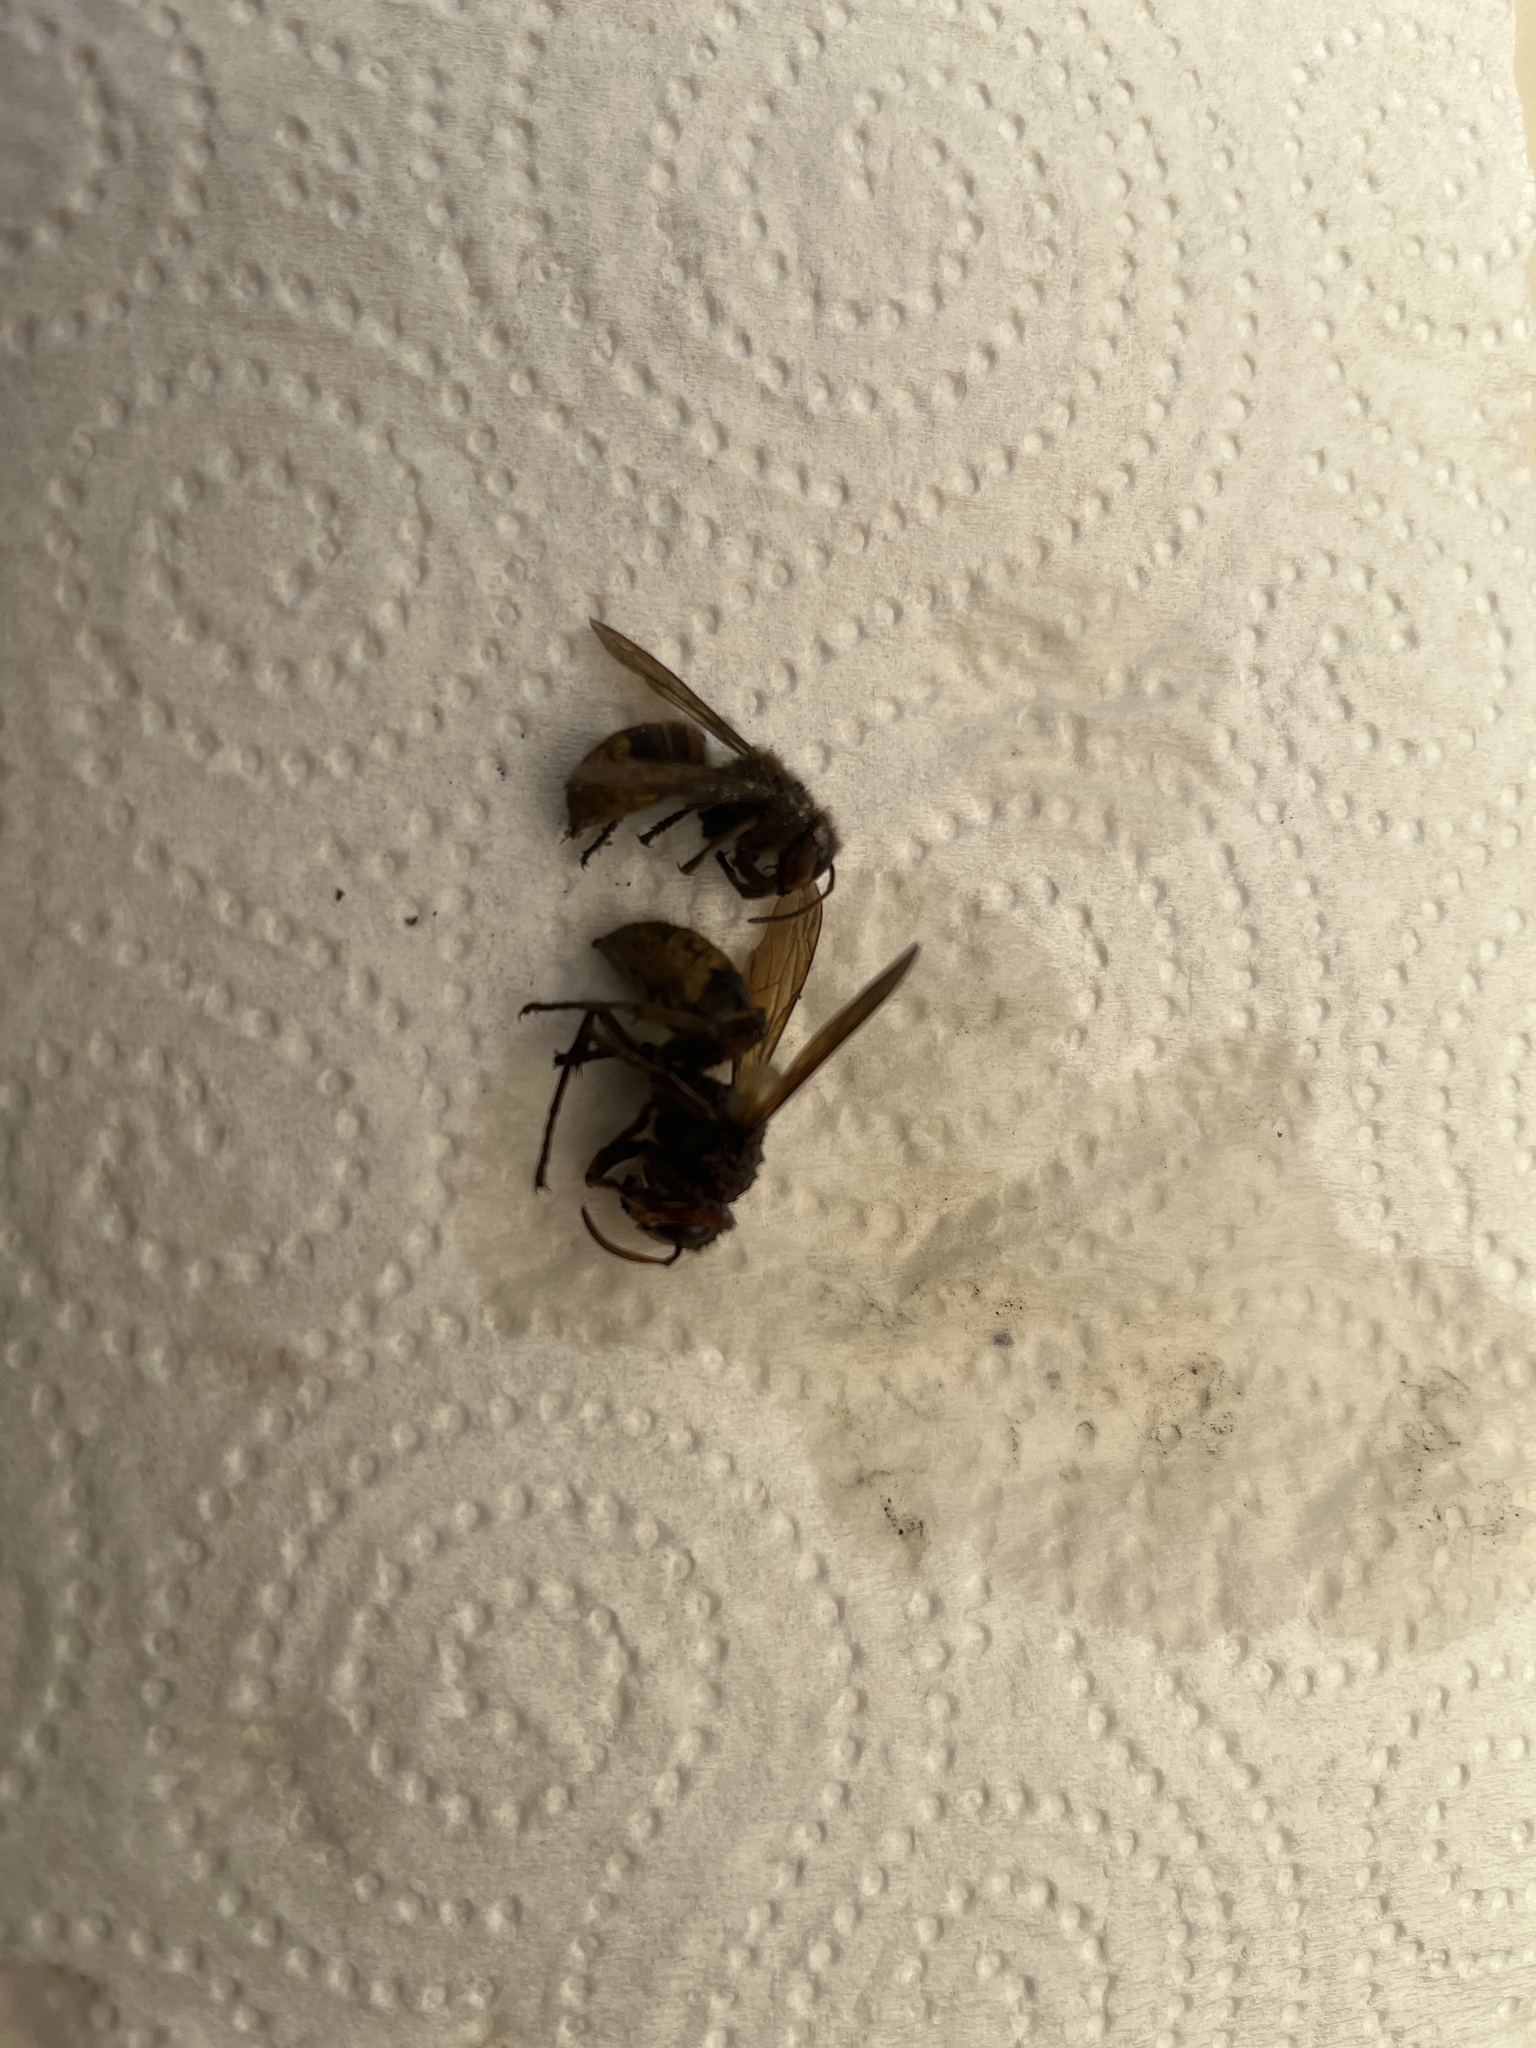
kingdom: Animalia
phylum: Arthropoda
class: Insecta
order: Hymenoptera
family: Vespidae
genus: Vespa
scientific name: Vespa crabro
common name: Hornet
